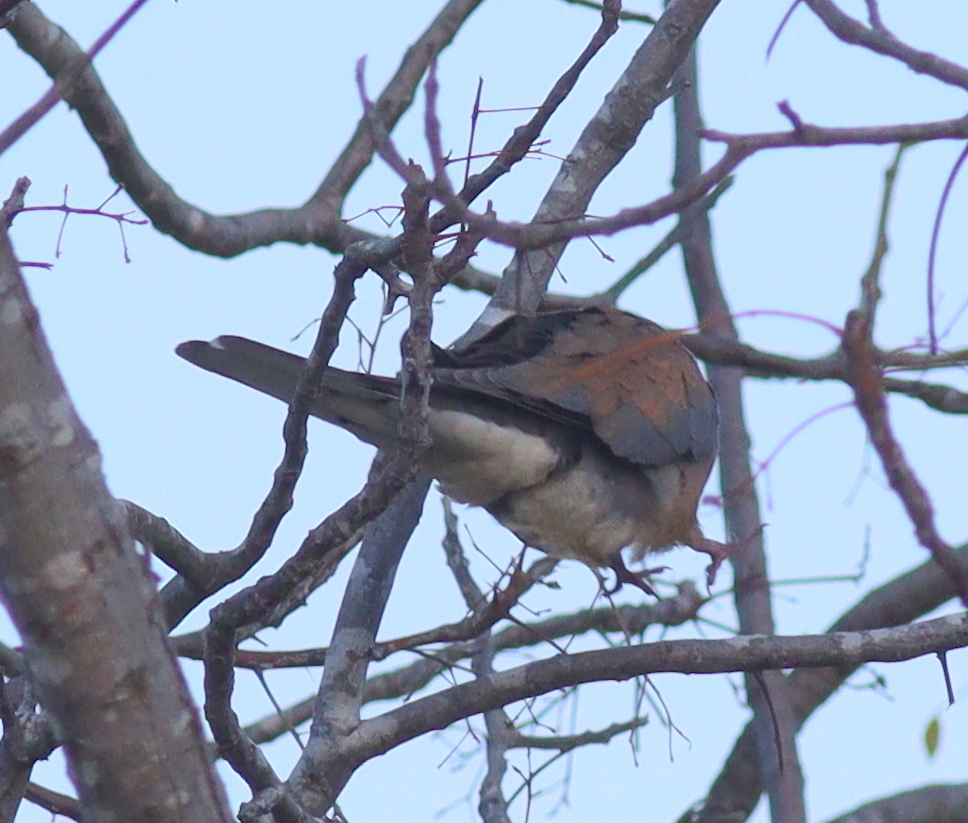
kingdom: Animalia
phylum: Chordata
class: Aves
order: Columbiformes
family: Columbidae
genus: Spilopelia
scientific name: Spilopelia senegalensis
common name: Laughing dove
